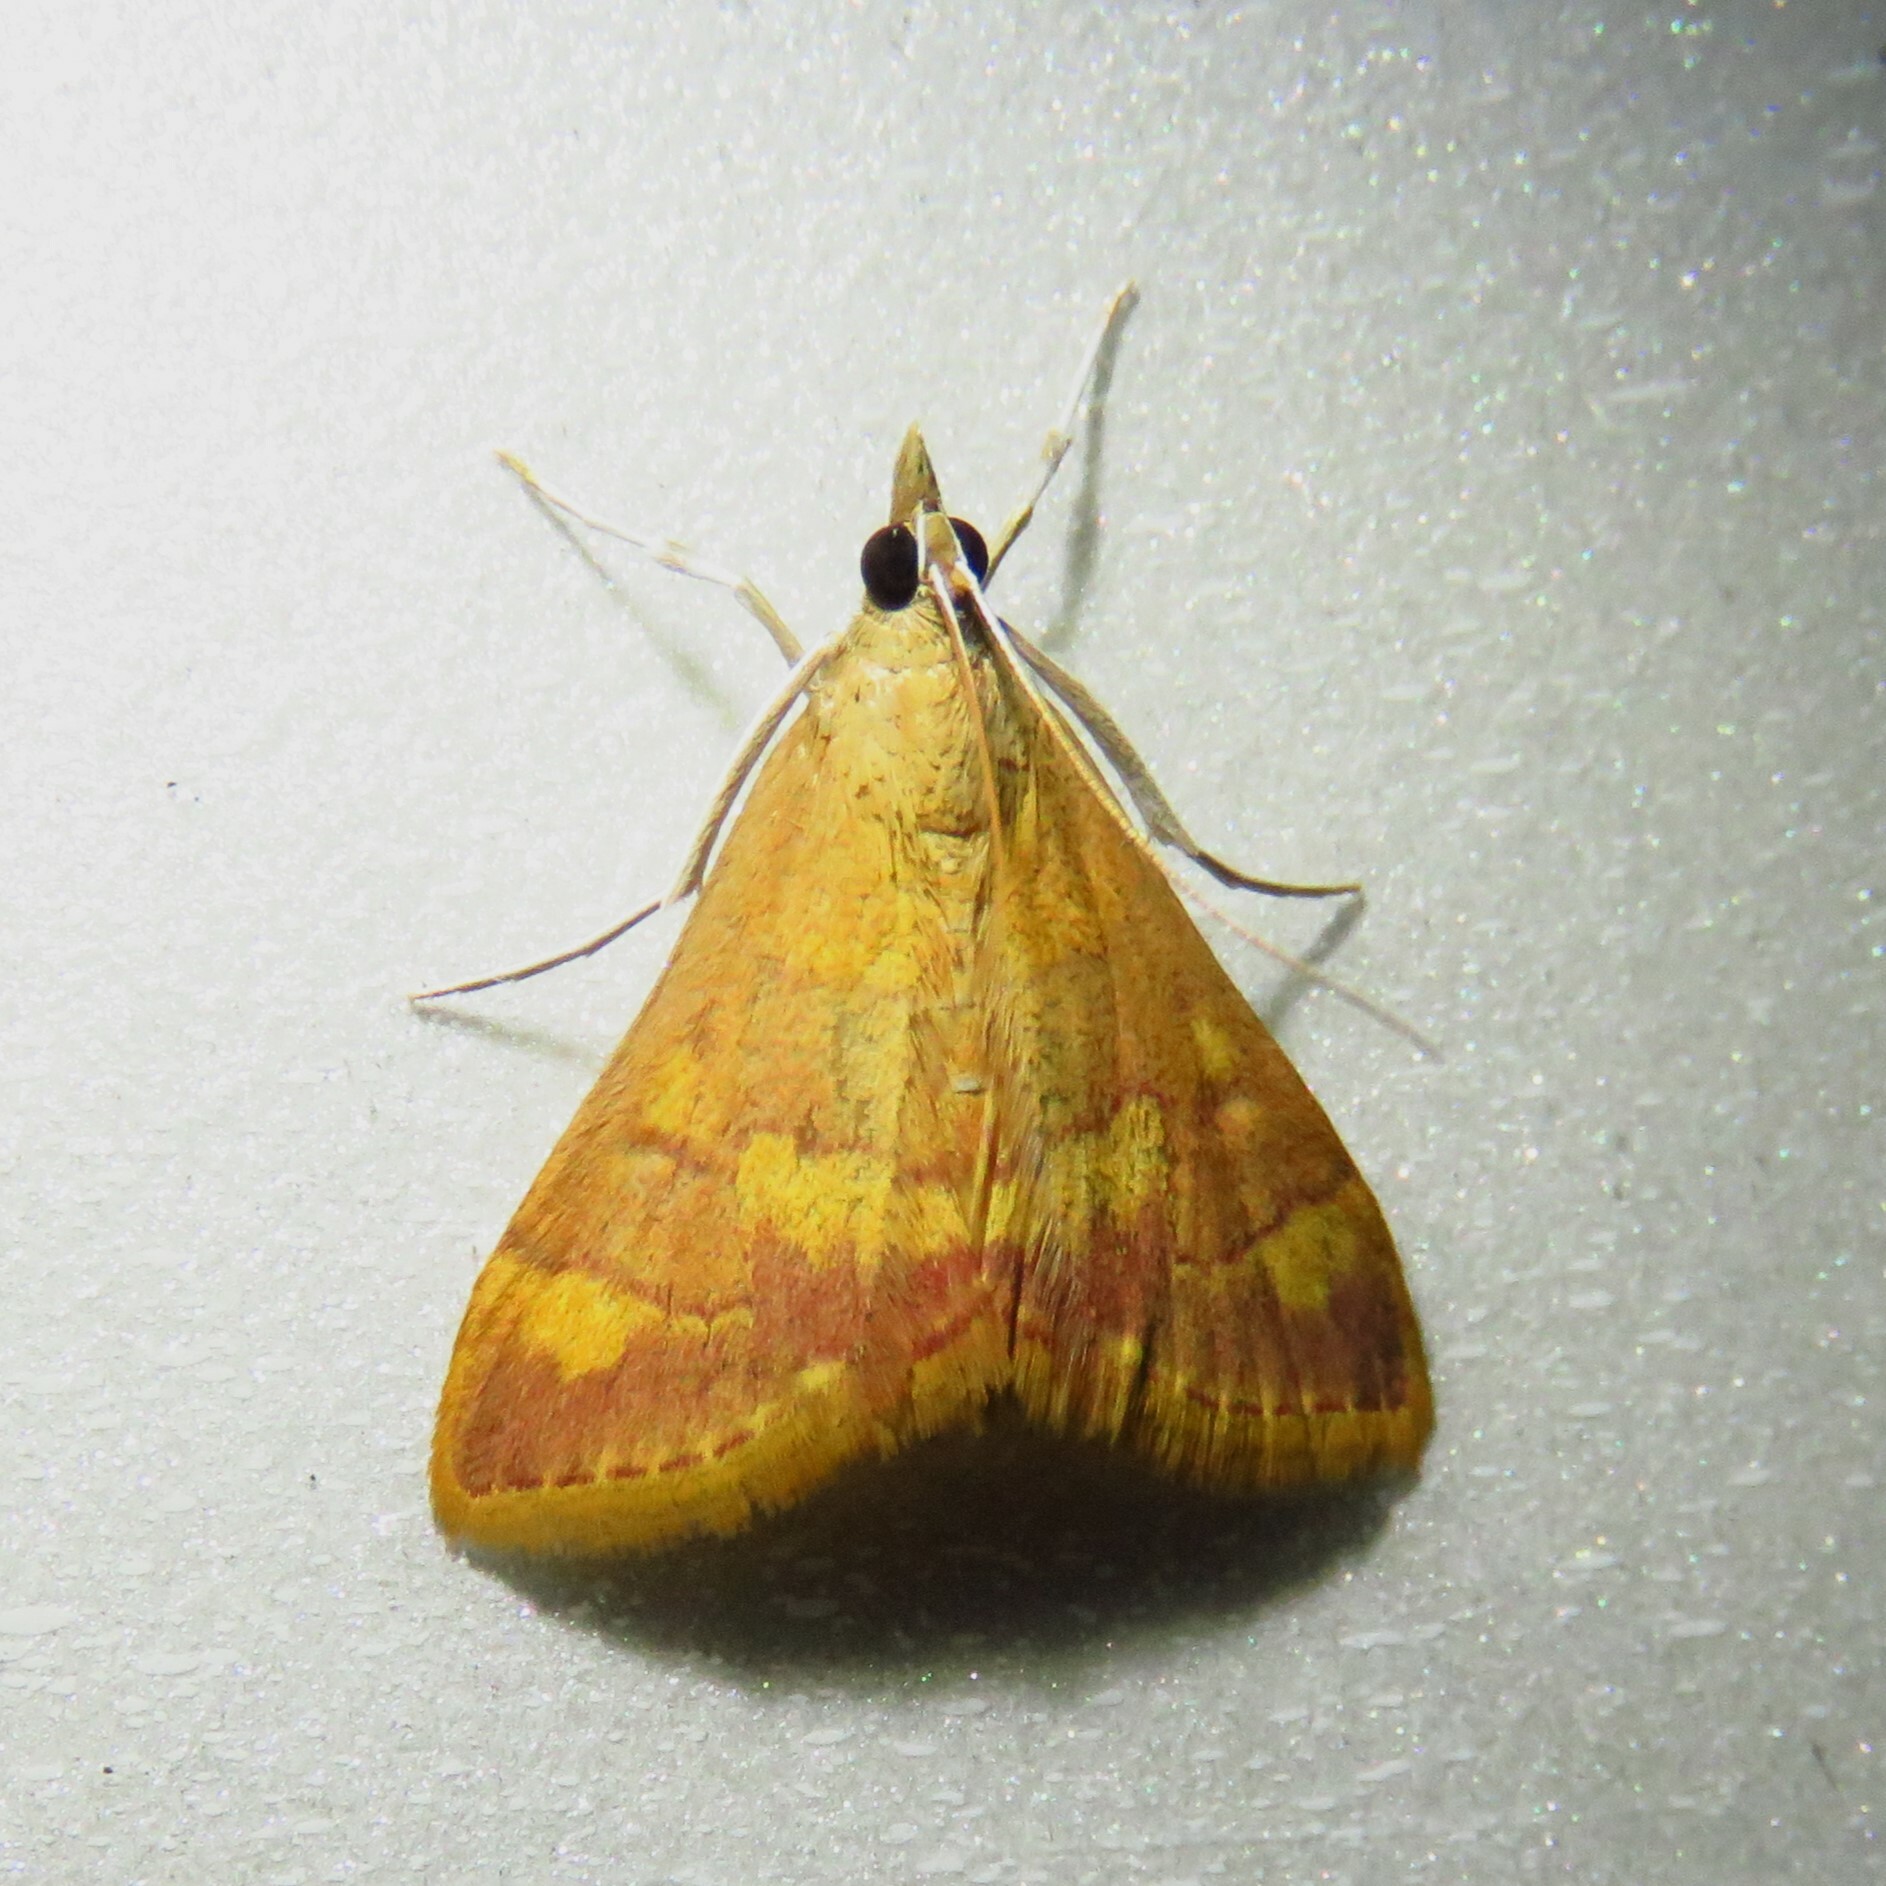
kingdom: Animalia
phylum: Arthropoda
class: Insecta
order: Lepidoptera
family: Crambidae
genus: Pyrausta
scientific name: Pyrausta pseudonythesalis
